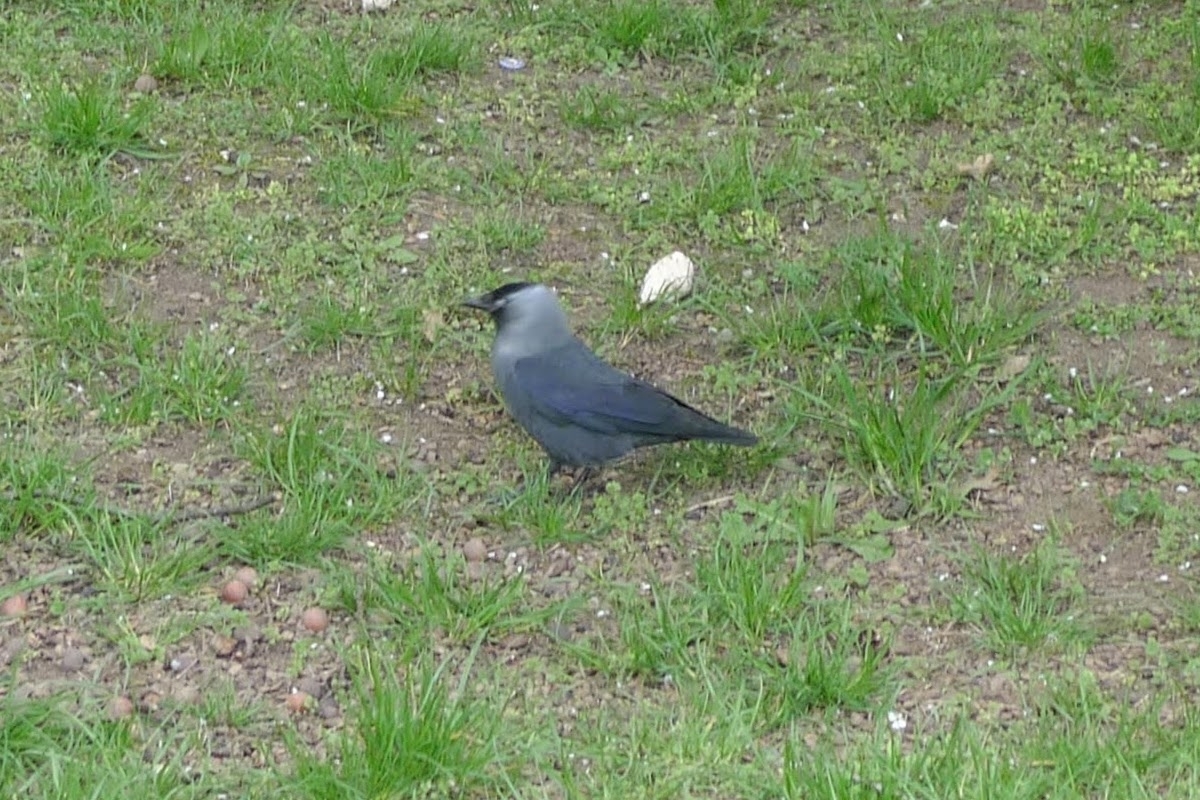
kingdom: Animalia
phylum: Chordata
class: Aves
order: Passeriformes
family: Corvidae
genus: Coloeus
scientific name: Coloeus monedula
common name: Western jackdaw
